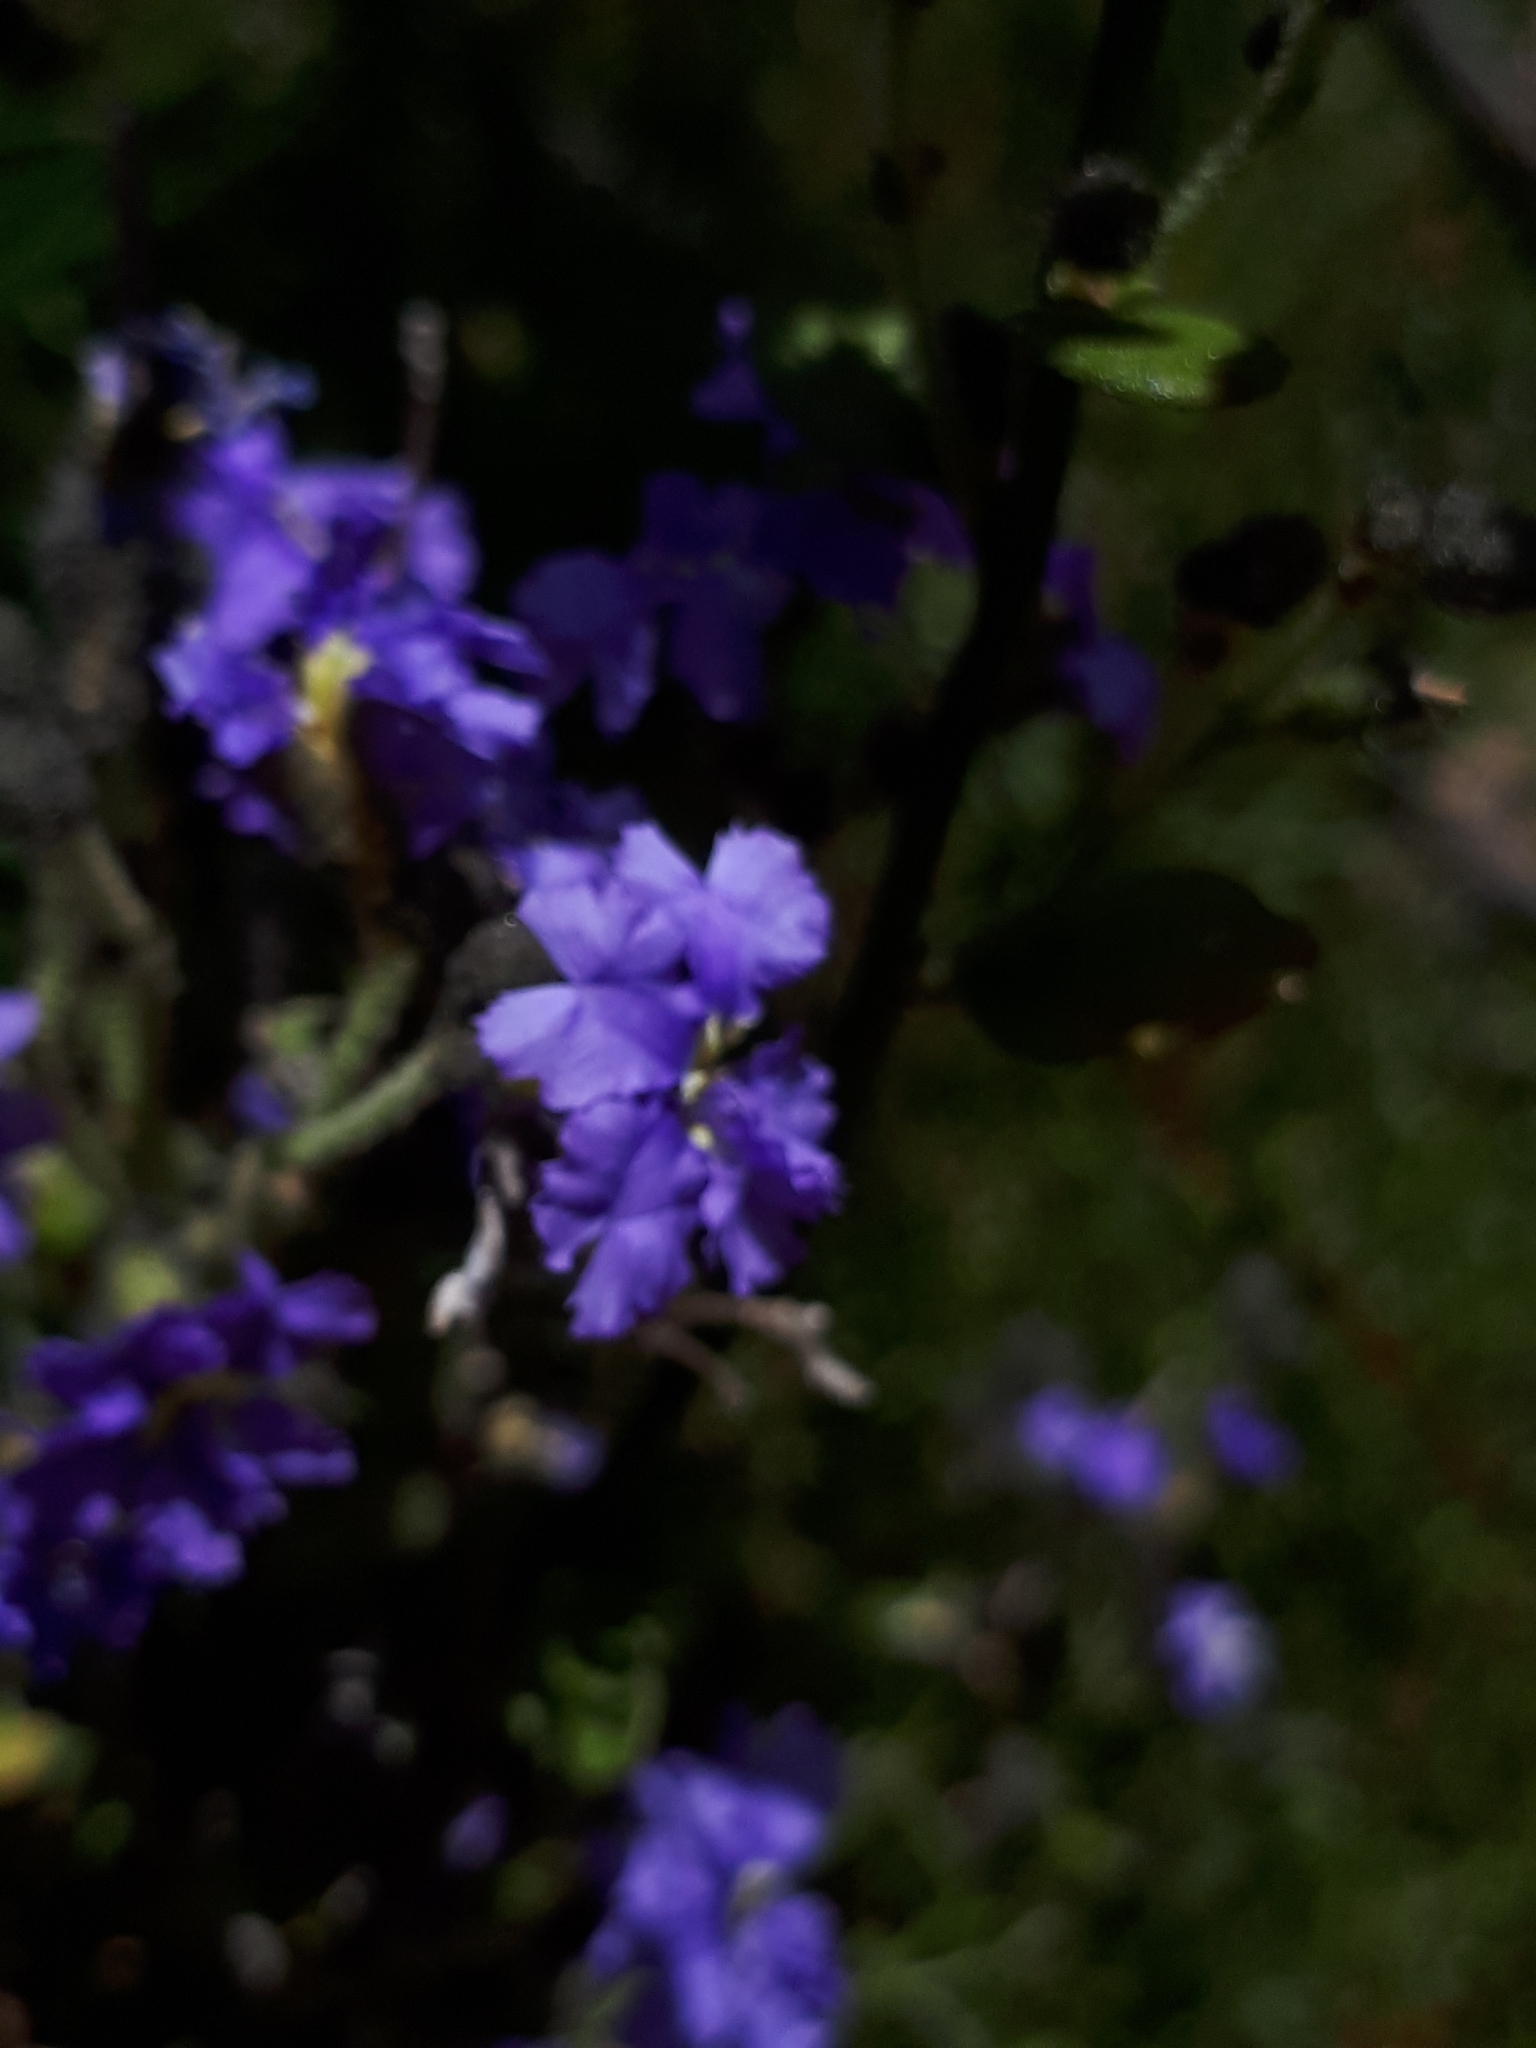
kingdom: Plantae
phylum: Tracheophyta
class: Magnoliopsida
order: Asterales
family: Goodeniaceae
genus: Dampiera
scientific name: Dampiera purpurea
